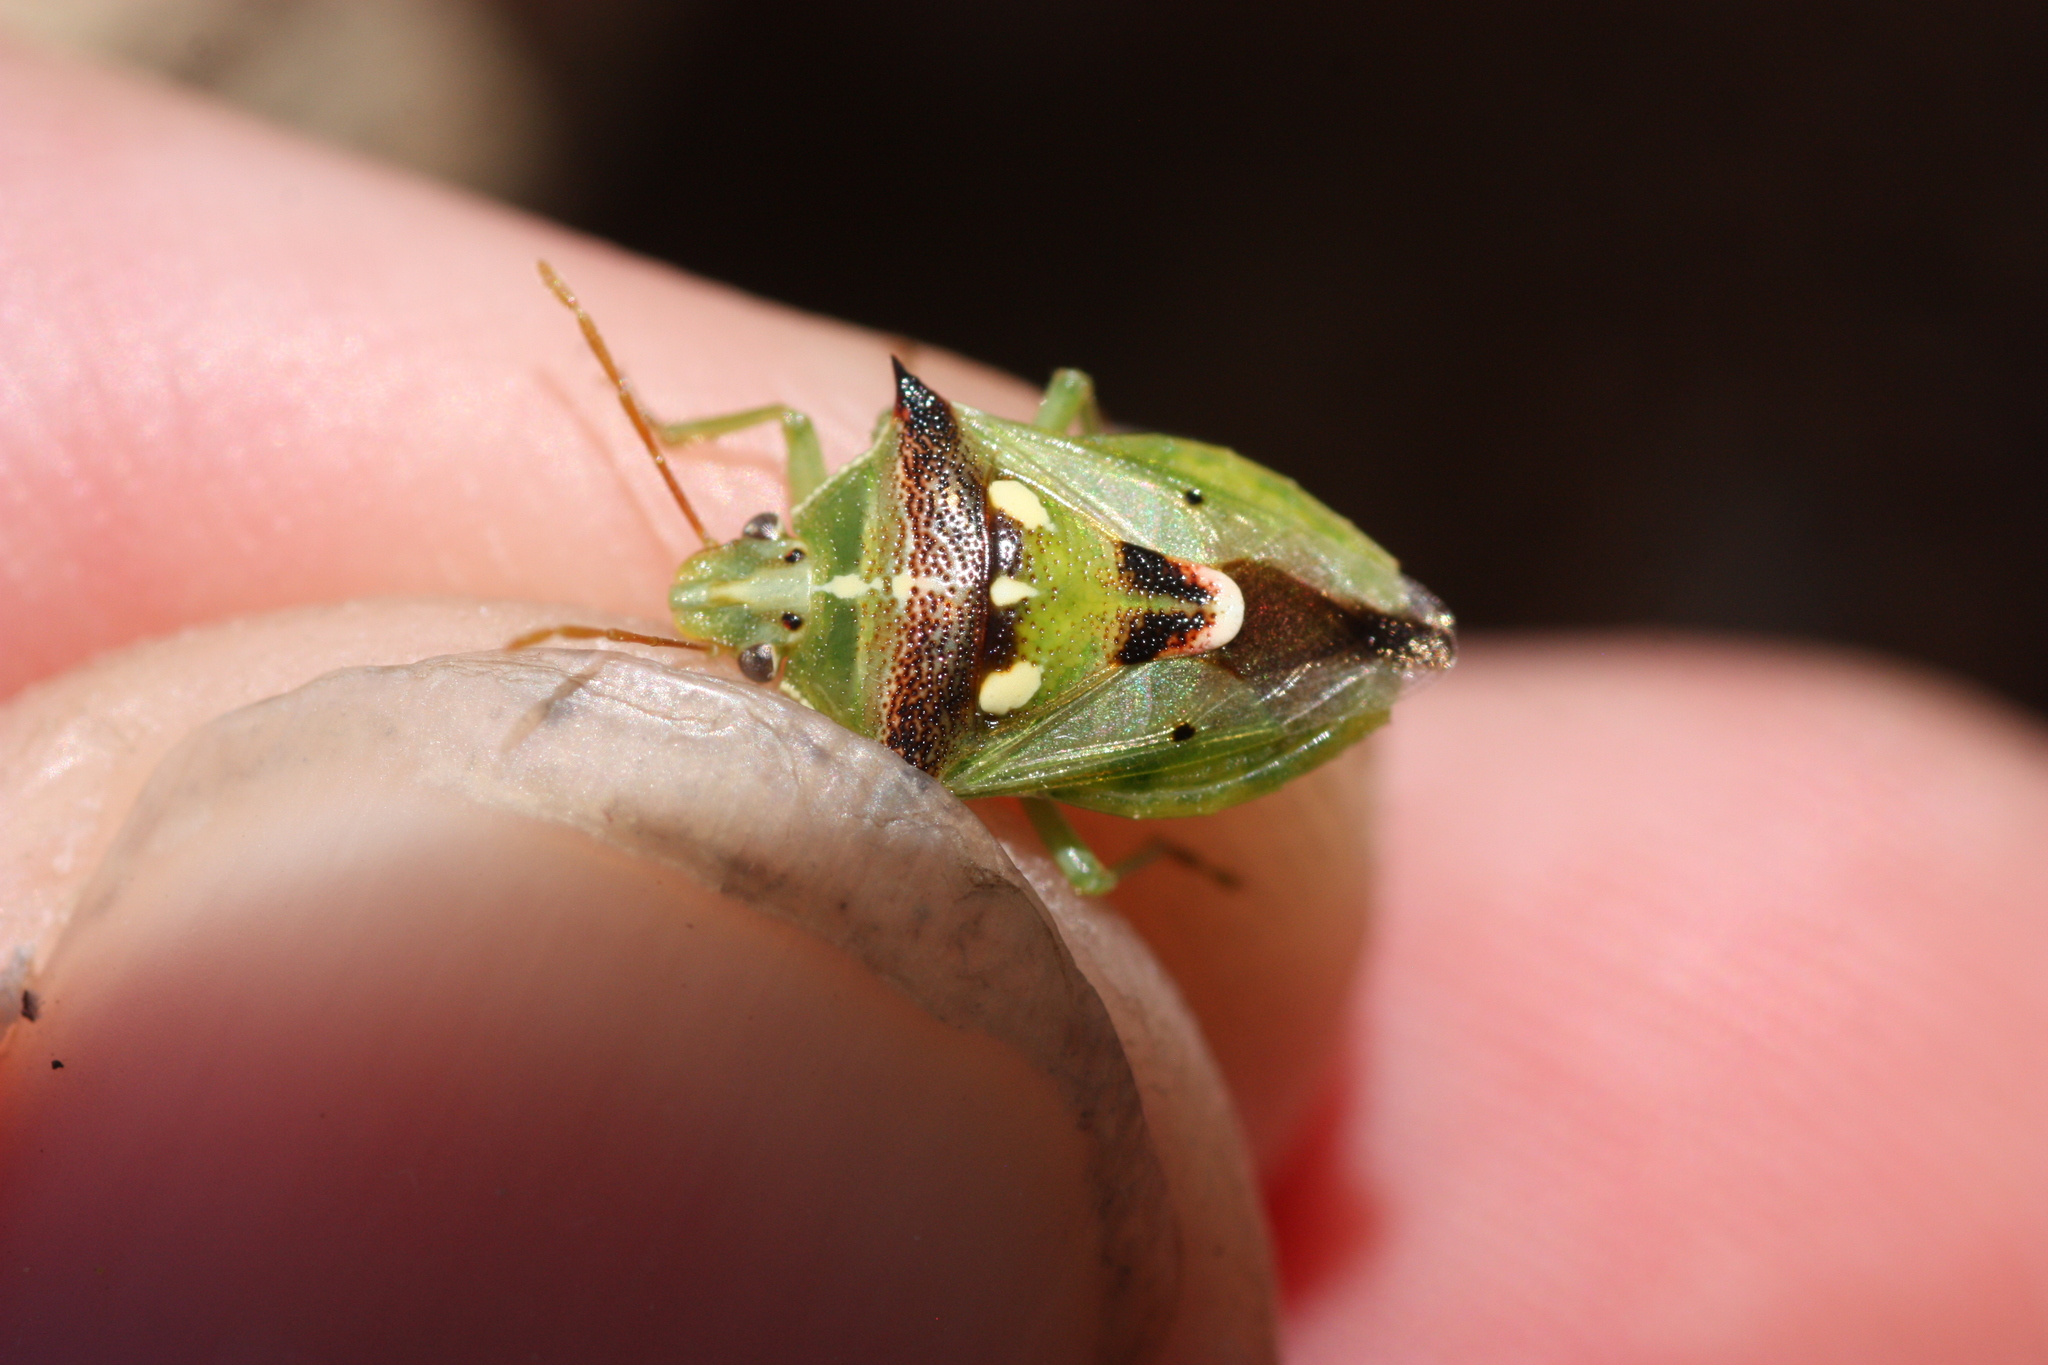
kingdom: Animalia
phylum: Arthropoda
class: Insecta
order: Hemiptera
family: Pentatomidae
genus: Tylospilus
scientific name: Tylospilus acutissimus
